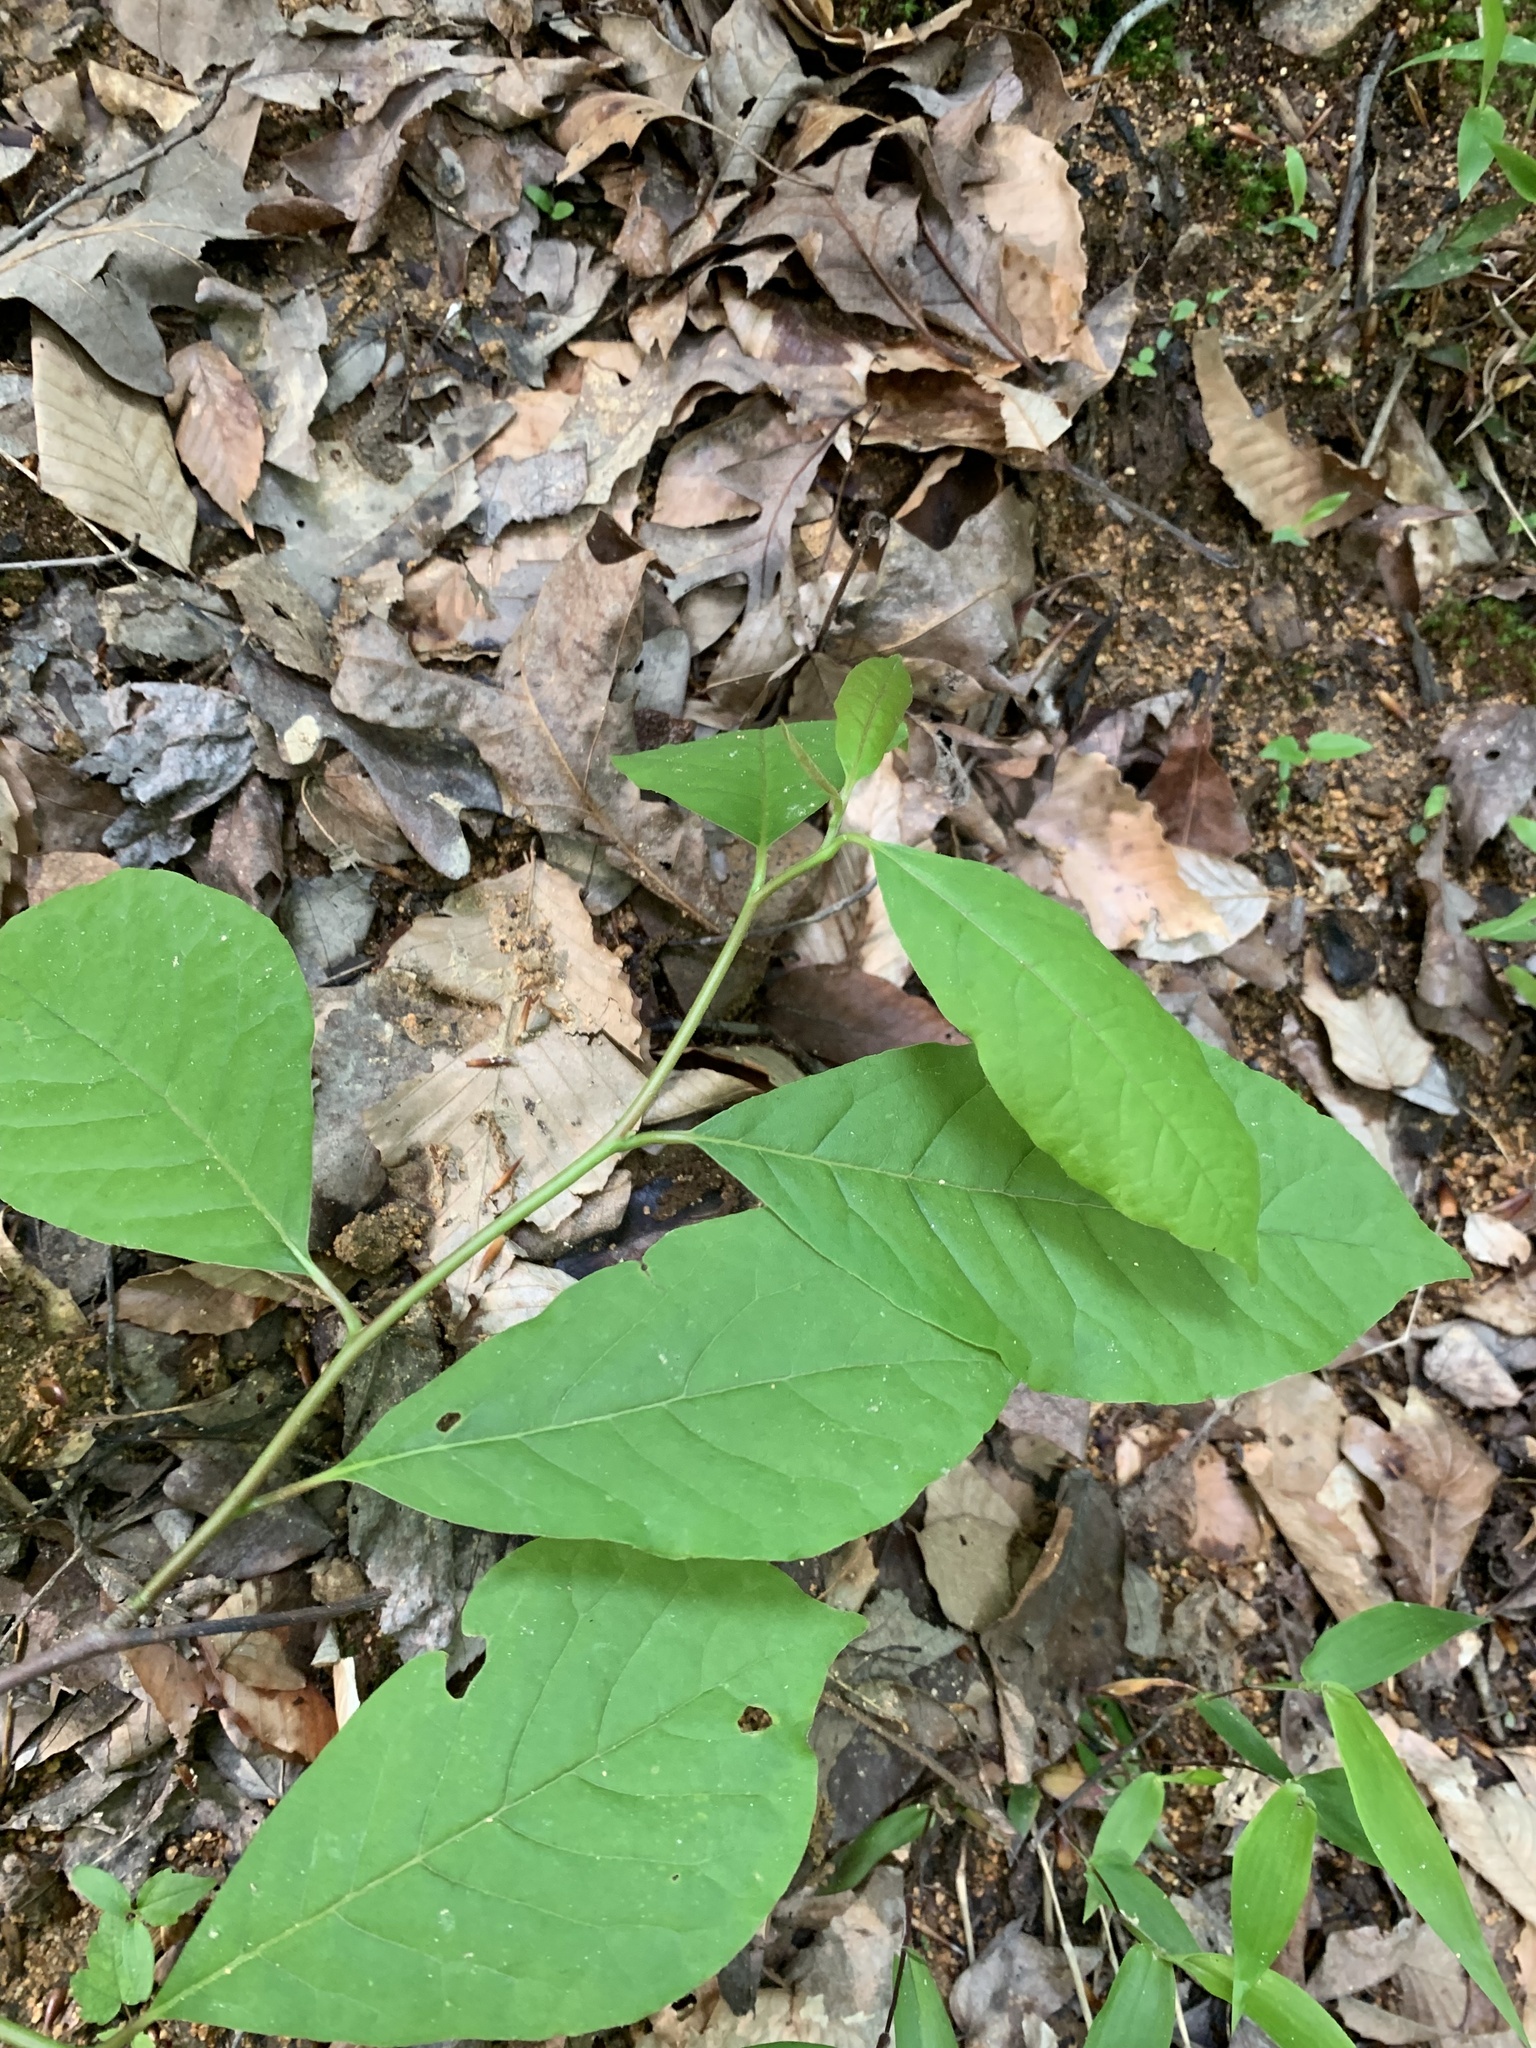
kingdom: Plantae
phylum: Tracheophyta
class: Magnoliopsida
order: Cornales
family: Nyssaceae
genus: Nyssa
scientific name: Nyssa sylvatica
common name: Black tupelo
